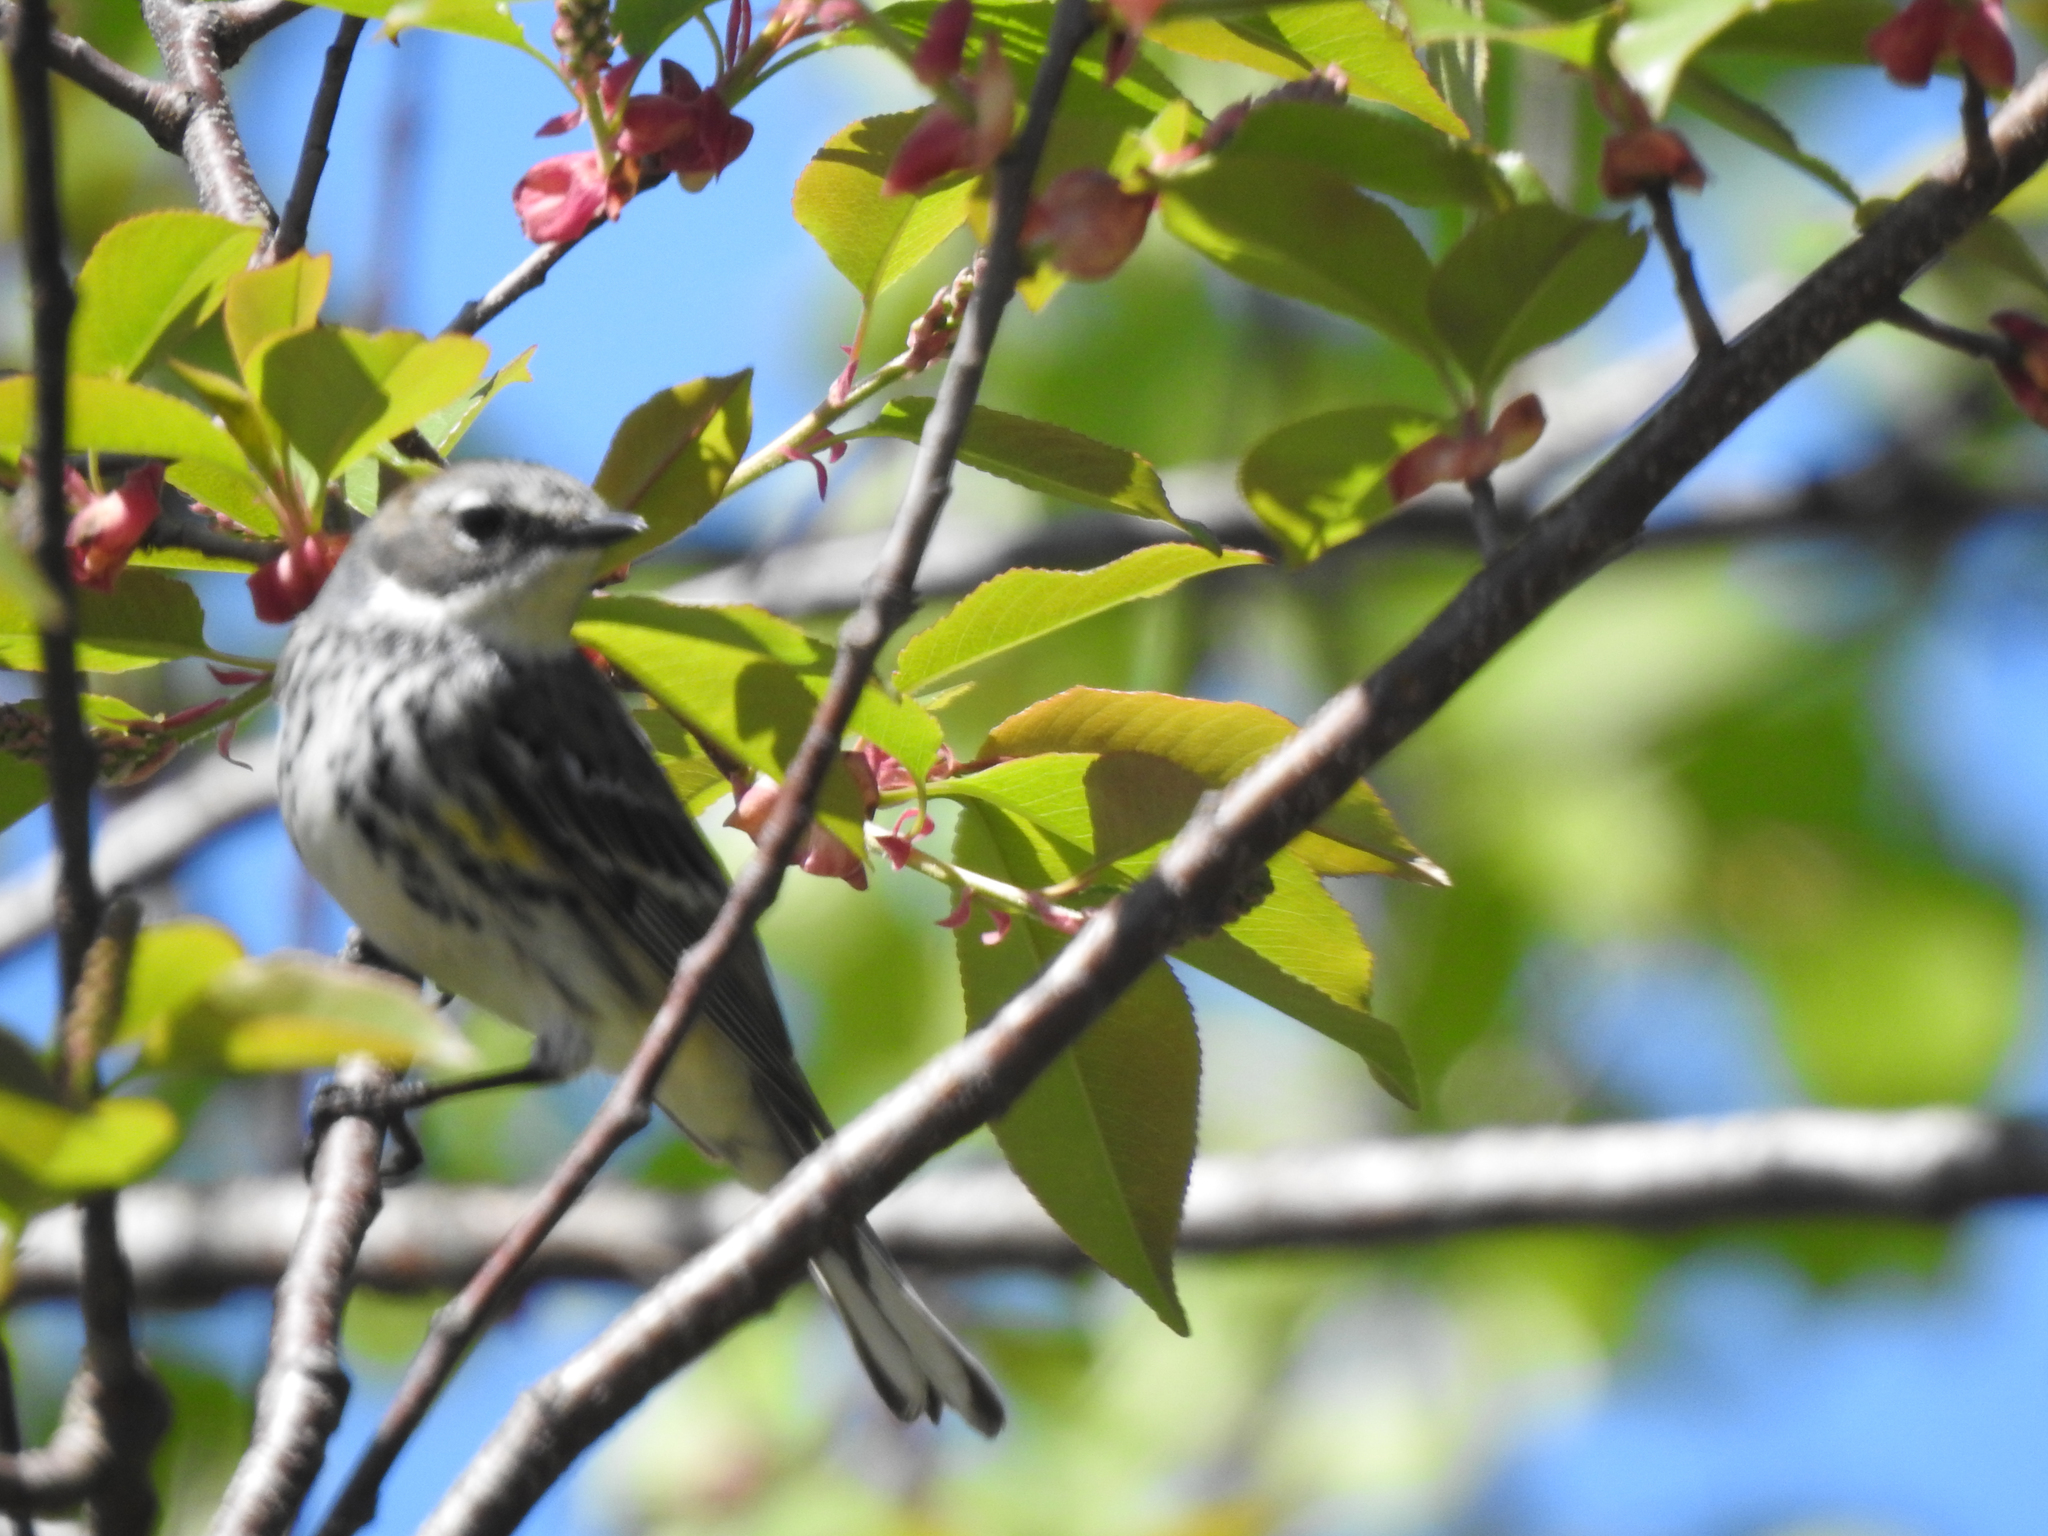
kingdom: Animalia
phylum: Chordata
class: Aves
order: Passeriformes
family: Parulidae
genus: Setophaga
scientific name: Setophaga coronata
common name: Myrtle warbler
